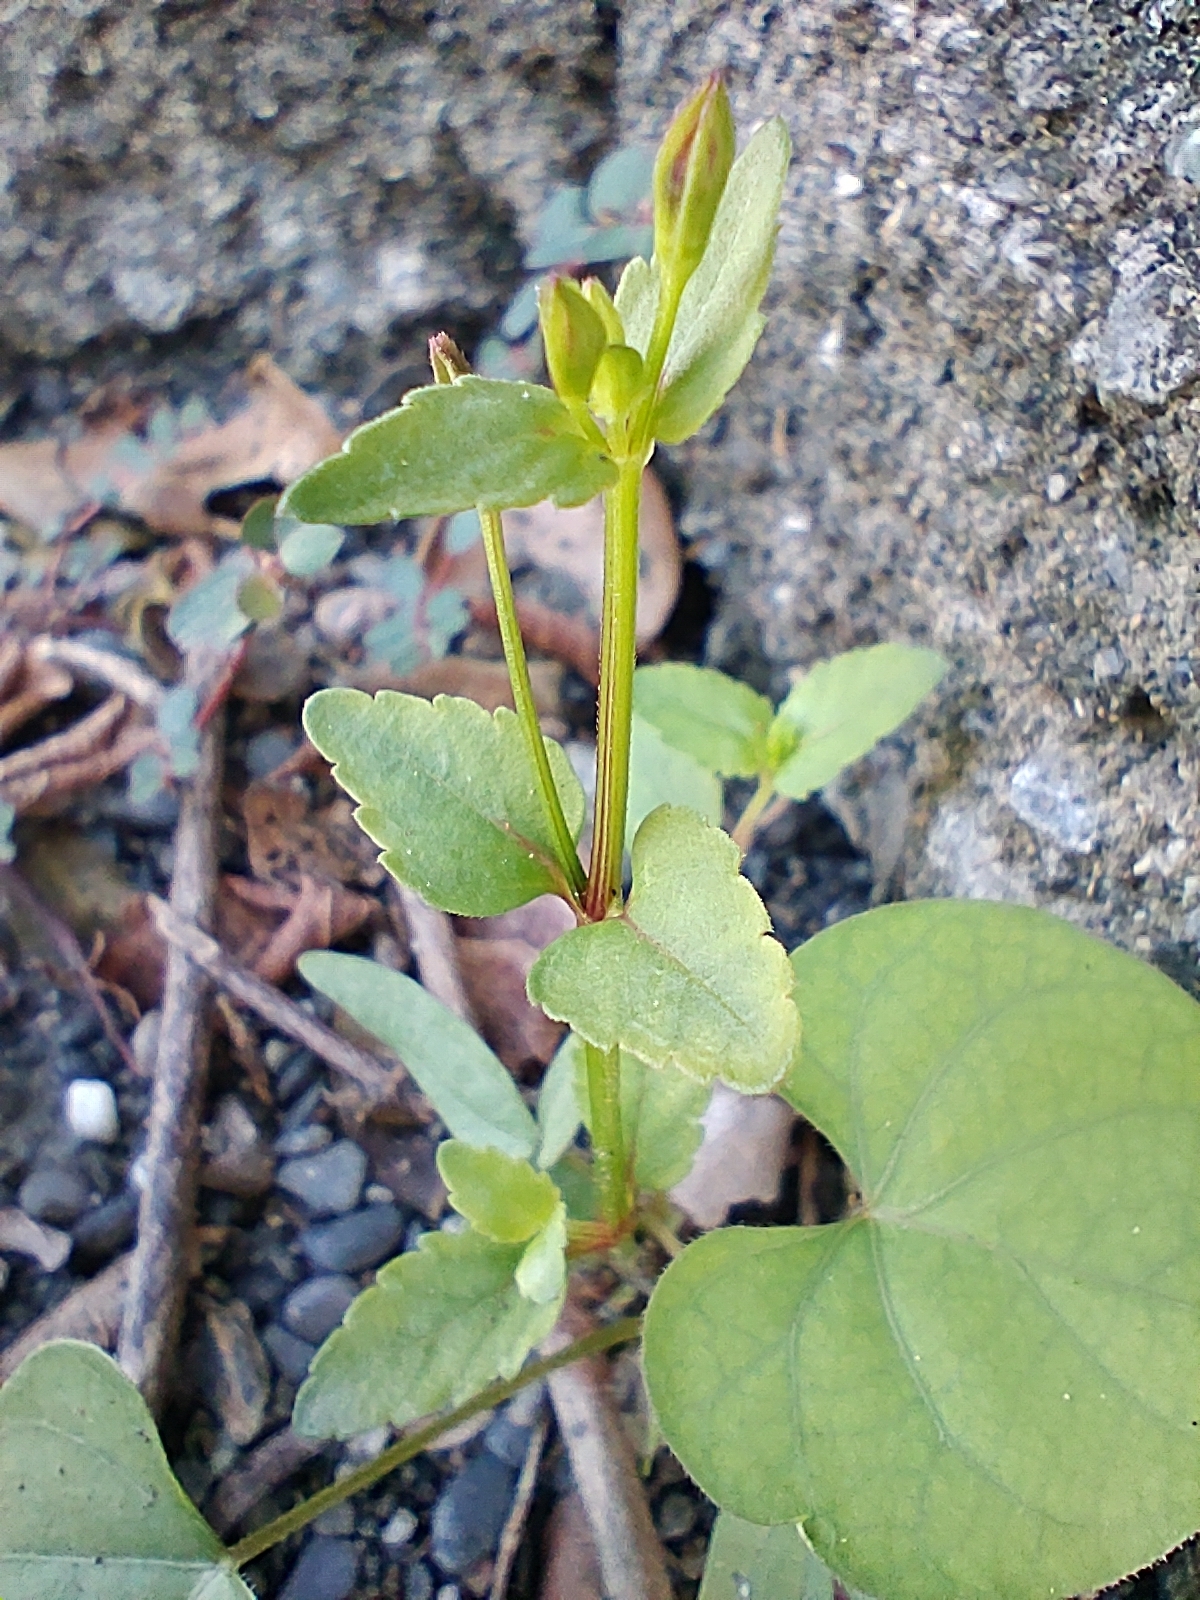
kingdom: Plantae
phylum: Tracheophyta
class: Magnoliopsida
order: Lamiales
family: Linderniaceae
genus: Torenia
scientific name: Torenia crustacea
